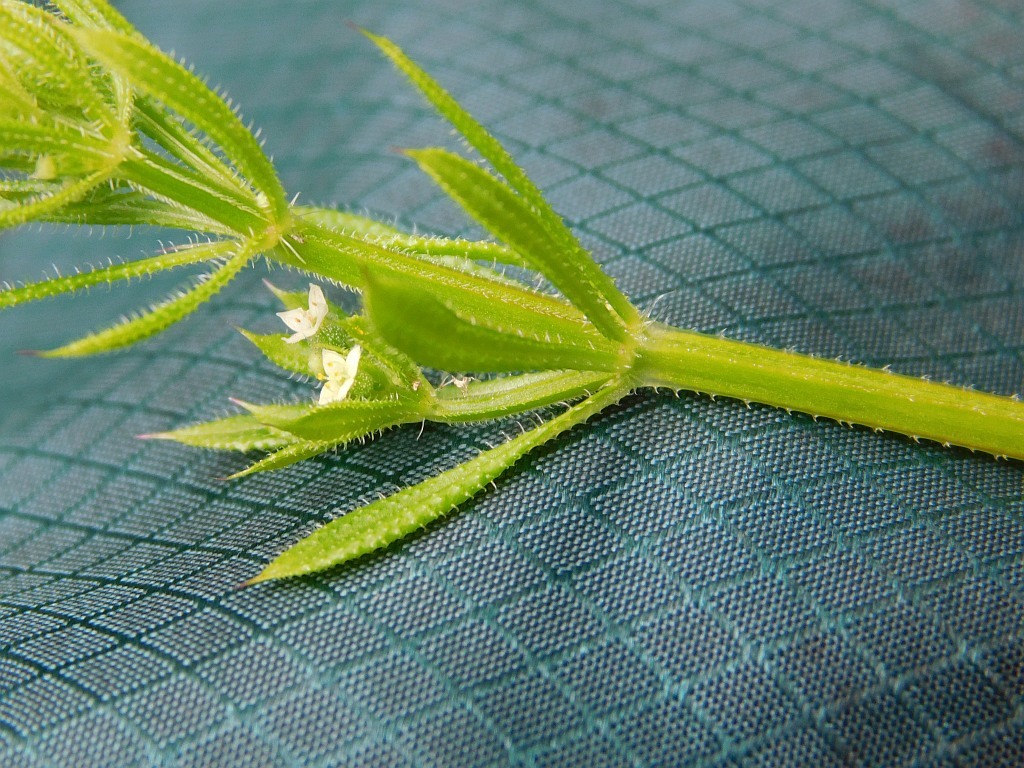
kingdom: Plantae
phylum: Tracheophyta
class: Magnoliopsida
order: Gentianales
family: Rubiaceae
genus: Galium
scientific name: Galium aparine
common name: Cleavers
